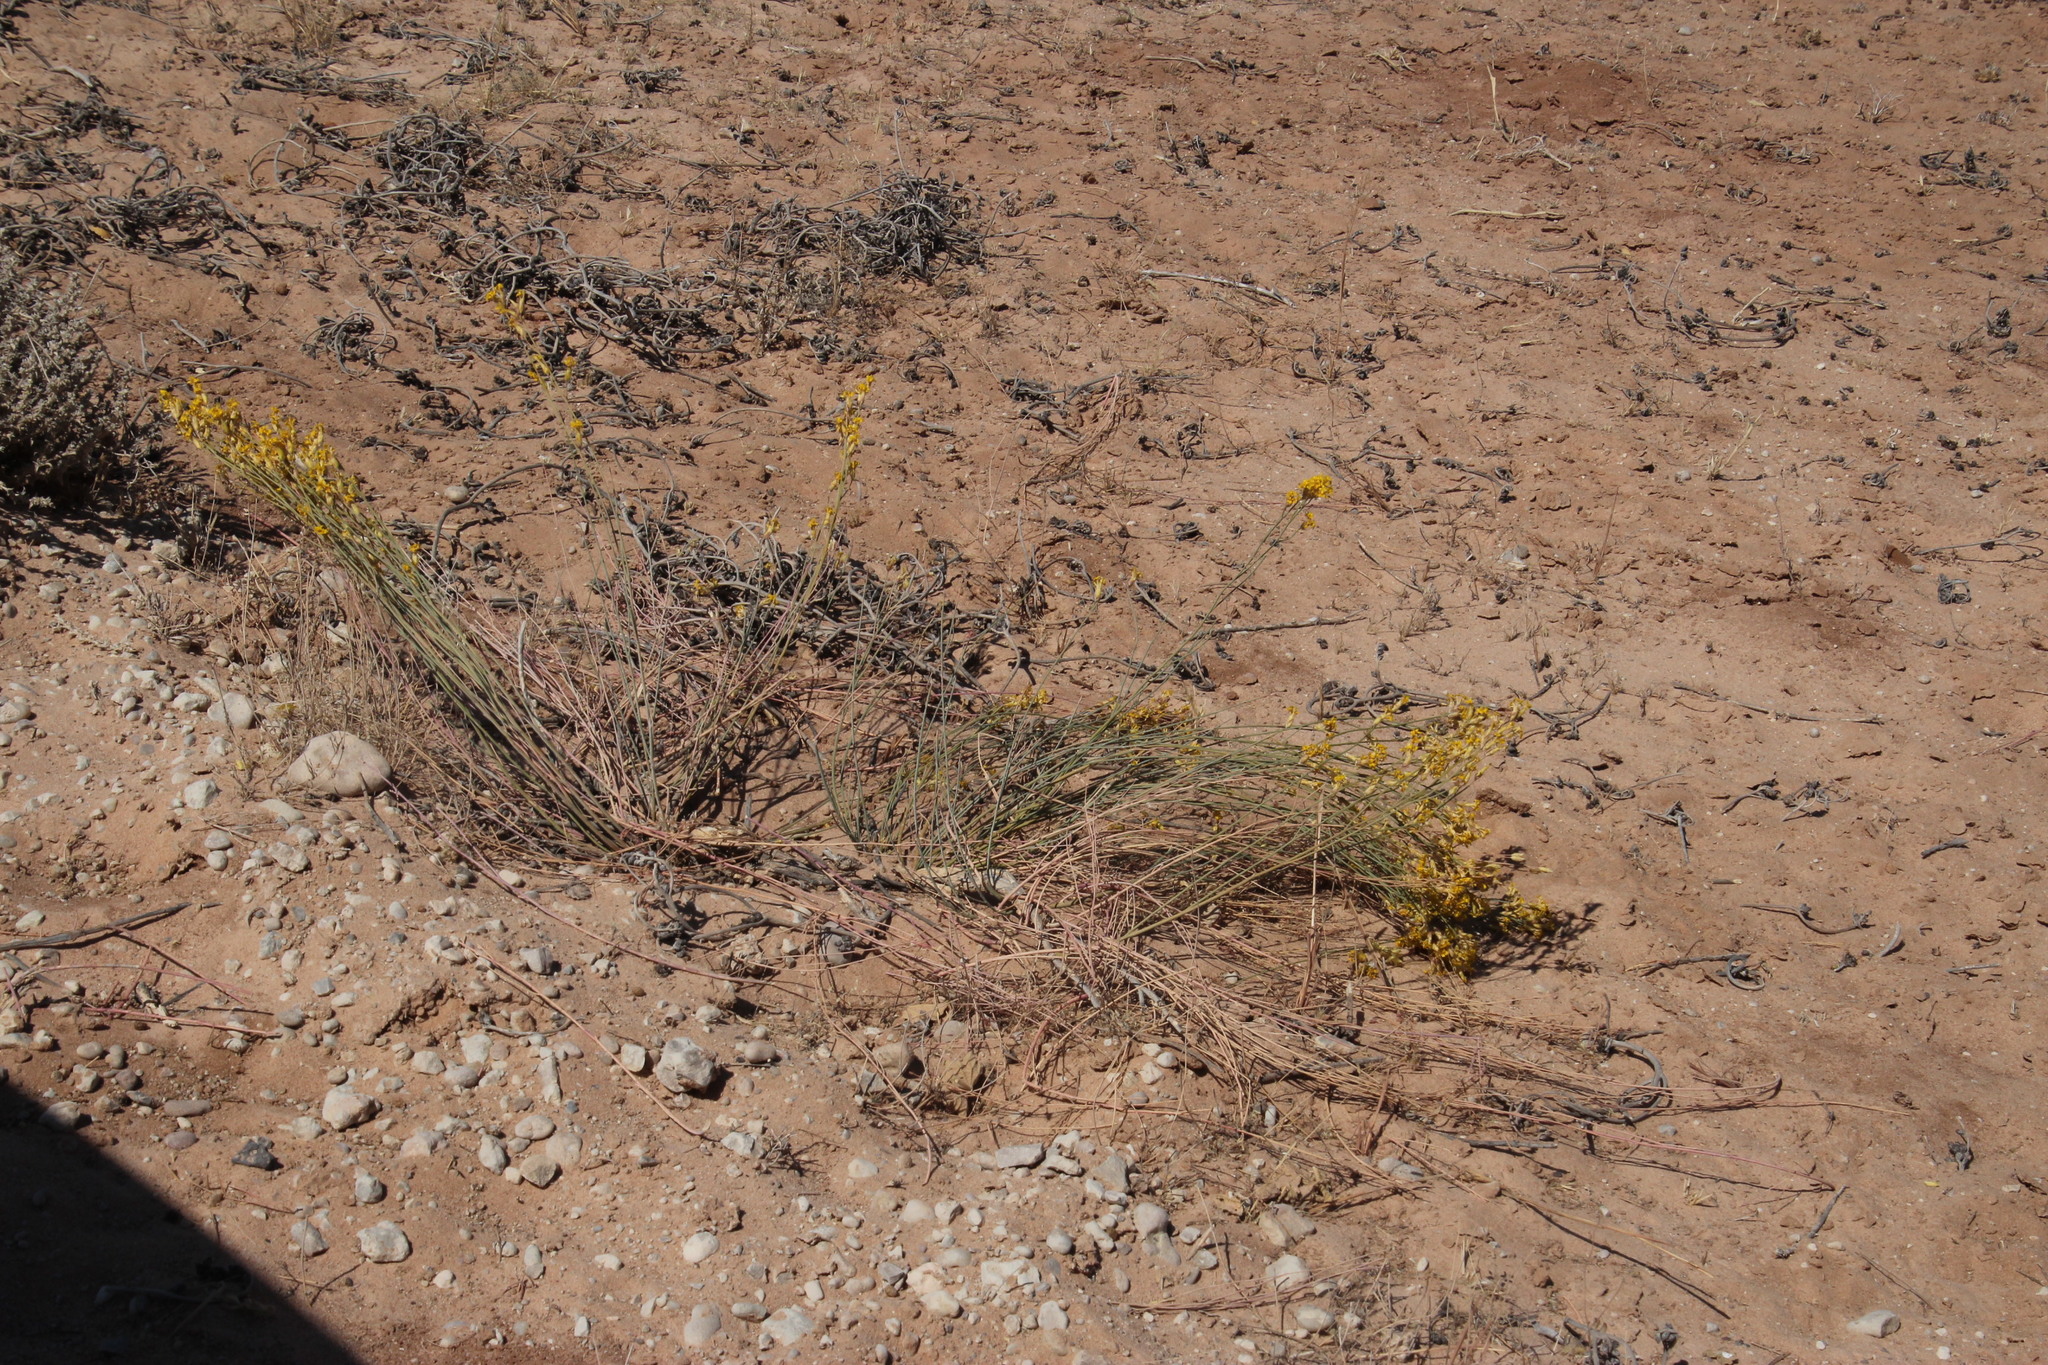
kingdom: Plantae
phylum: Tracheophyta
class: Magnoliopsida
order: Malvales
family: Thymelaeaceae
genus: Gnidia
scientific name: Gnidia polycephala
